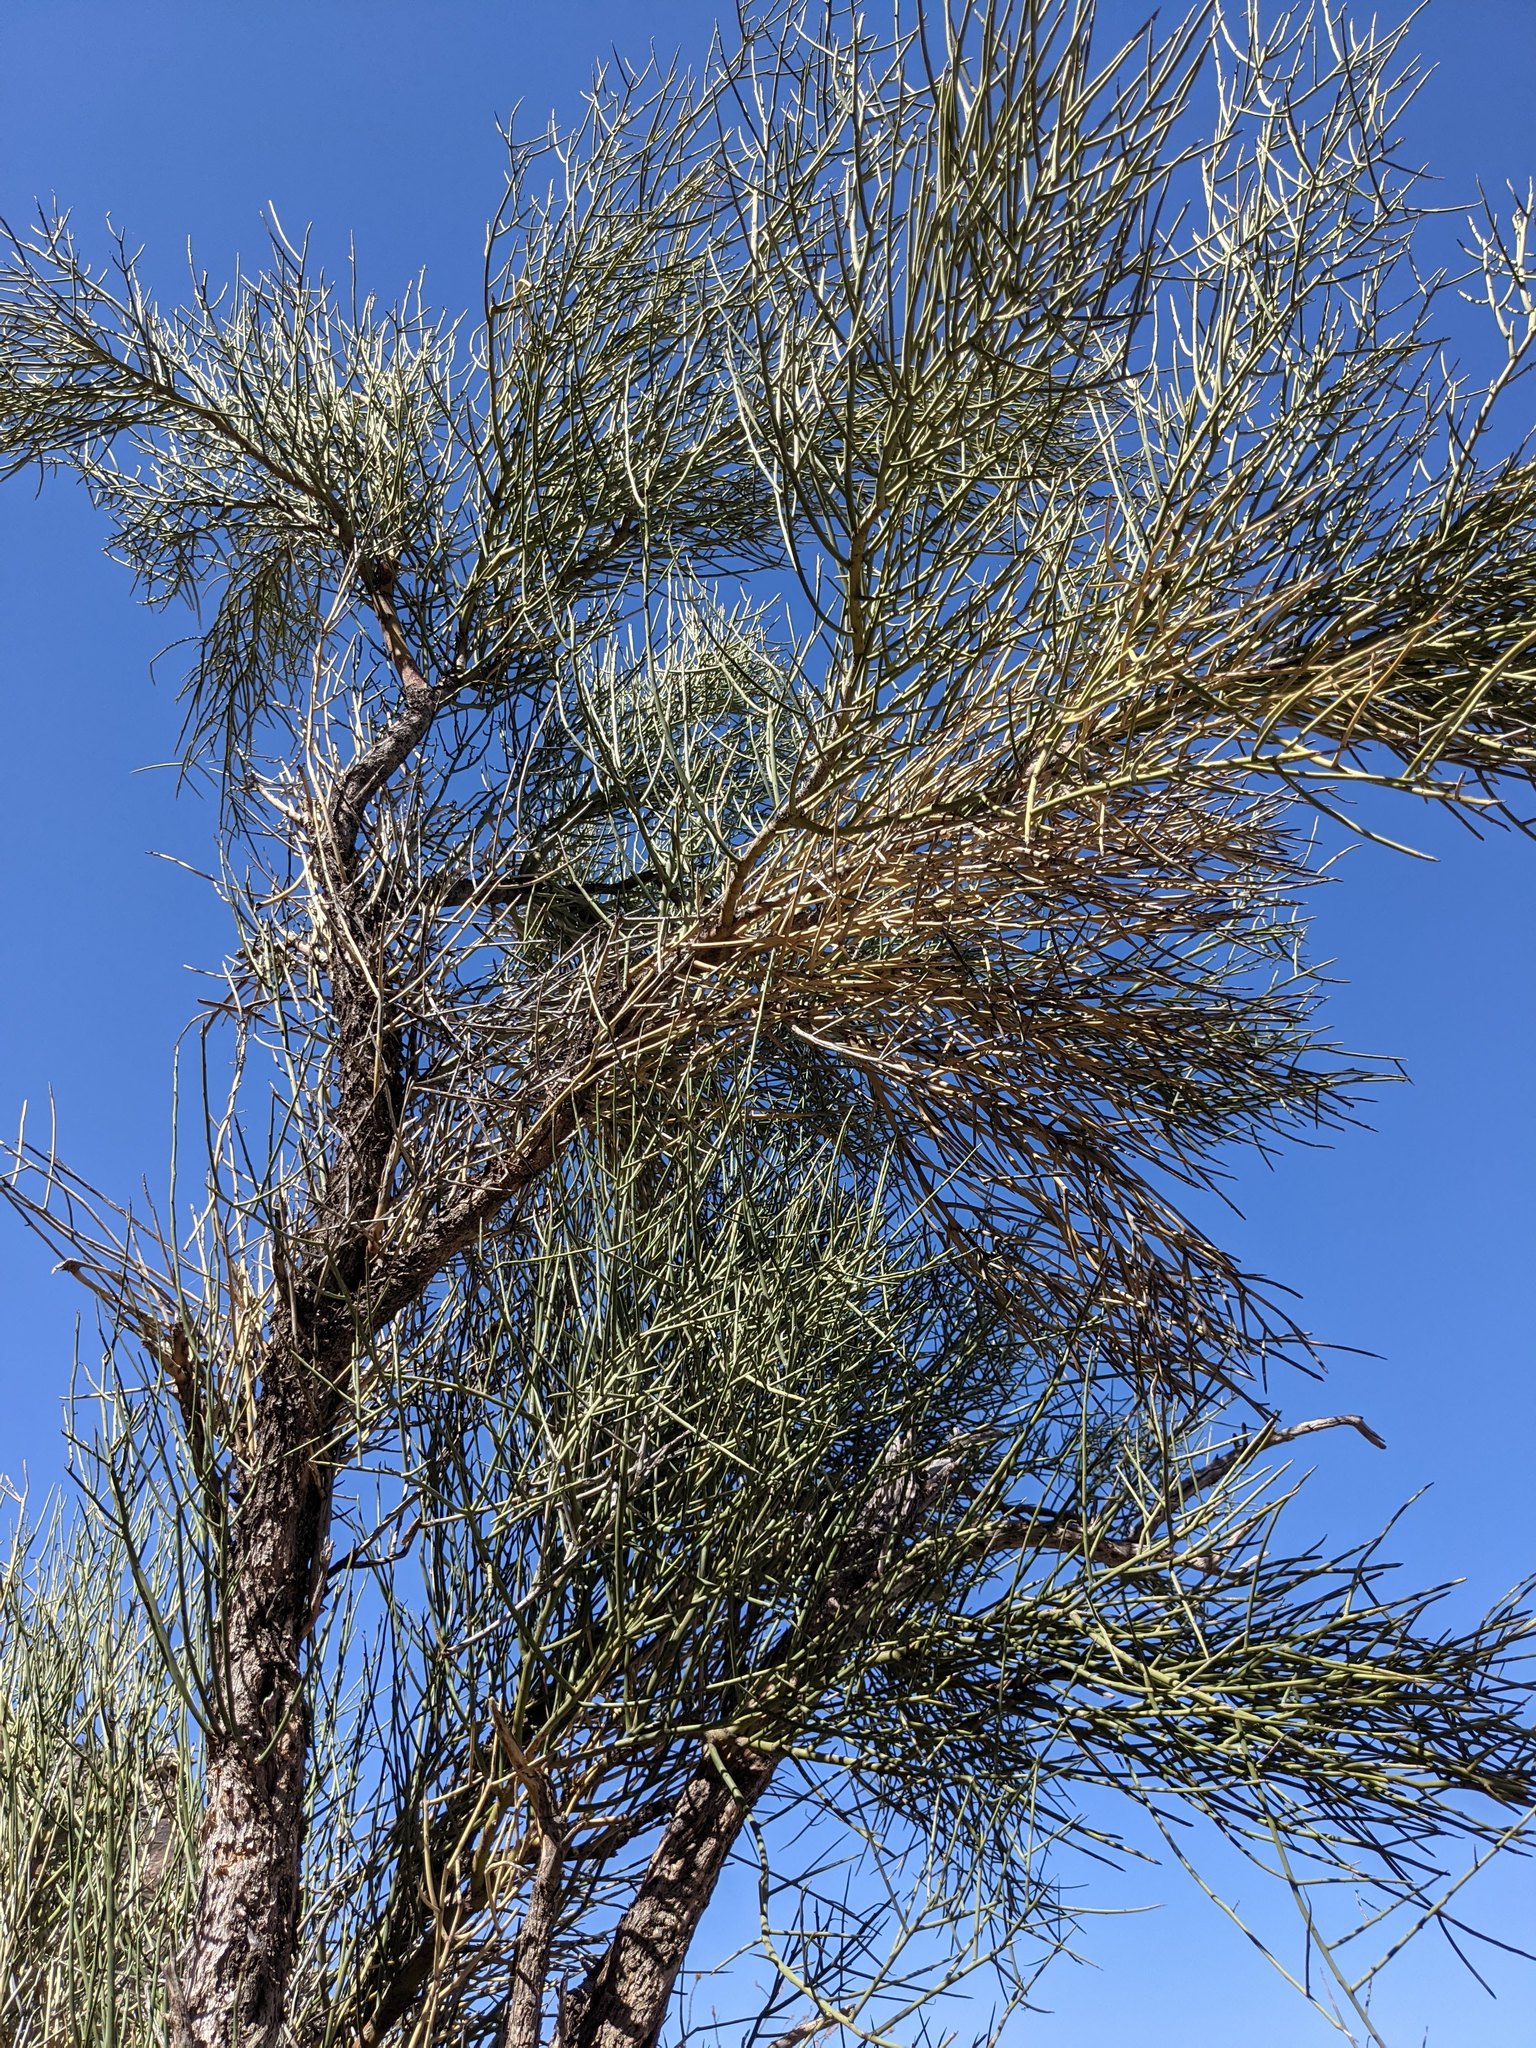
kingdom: Plantae
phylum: Tracheophyta
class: Magnoliopsida
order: Celastrales
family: Celastraceae
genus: Canotia
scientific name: Canotia holacantha
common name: Crucifixion thorns
